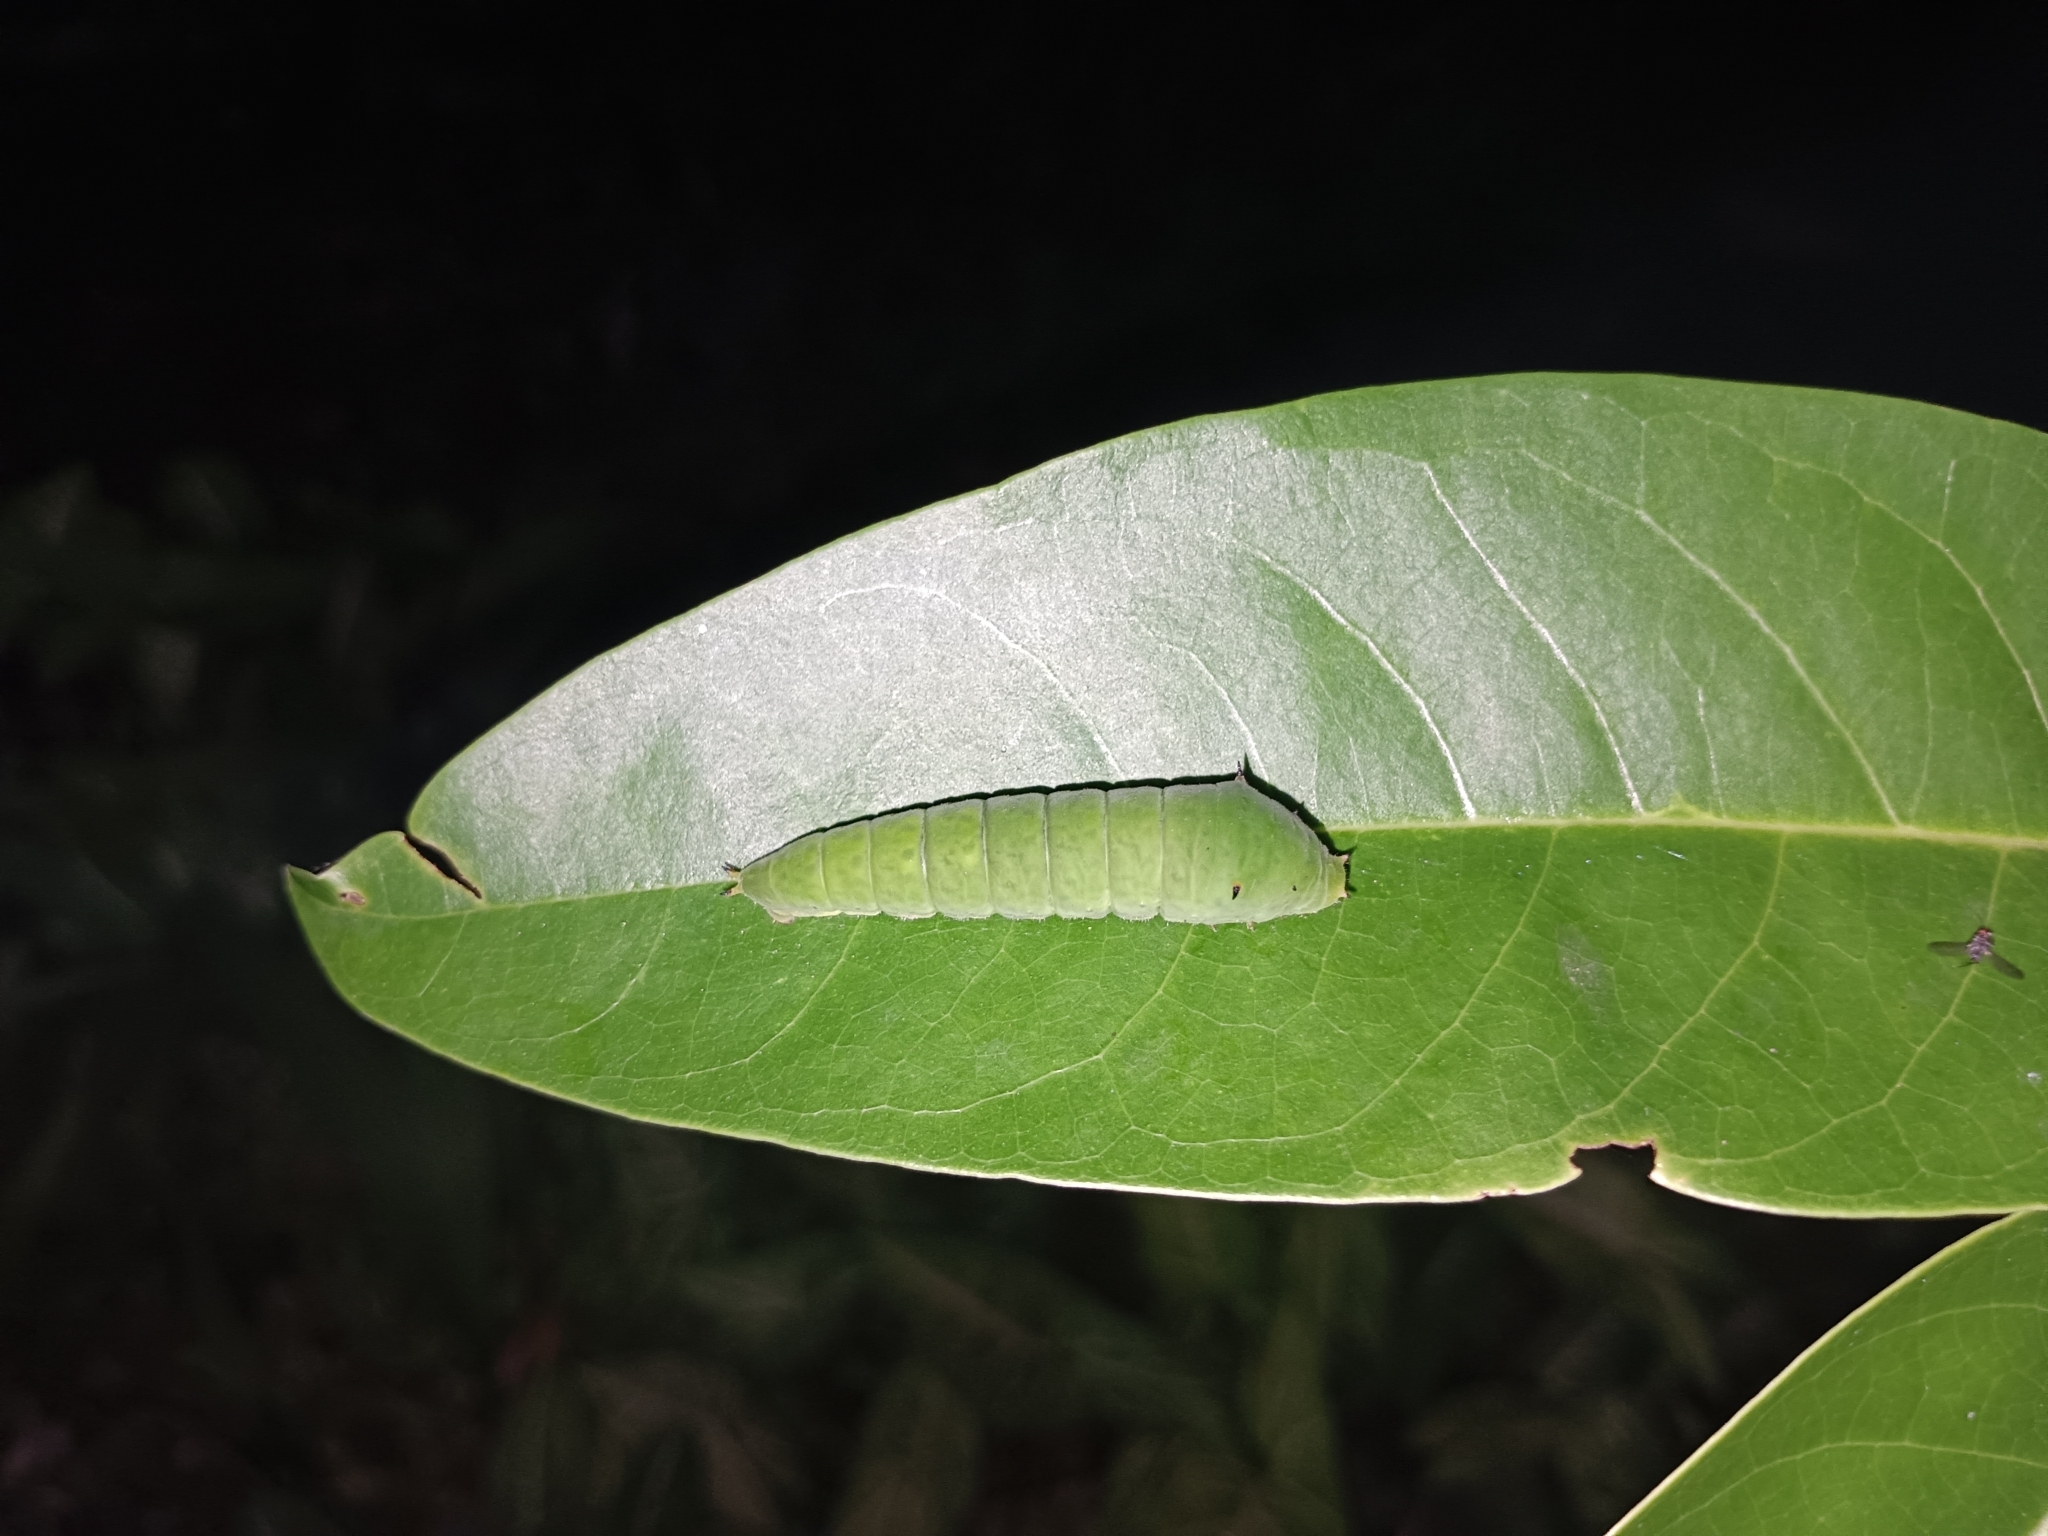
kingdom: Animalia
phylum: Arthropoda
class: Insecta
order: Lepidoptera
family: Papilionidae
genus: Graphium
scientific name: Graphium agamemnon
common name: Tailed jay
